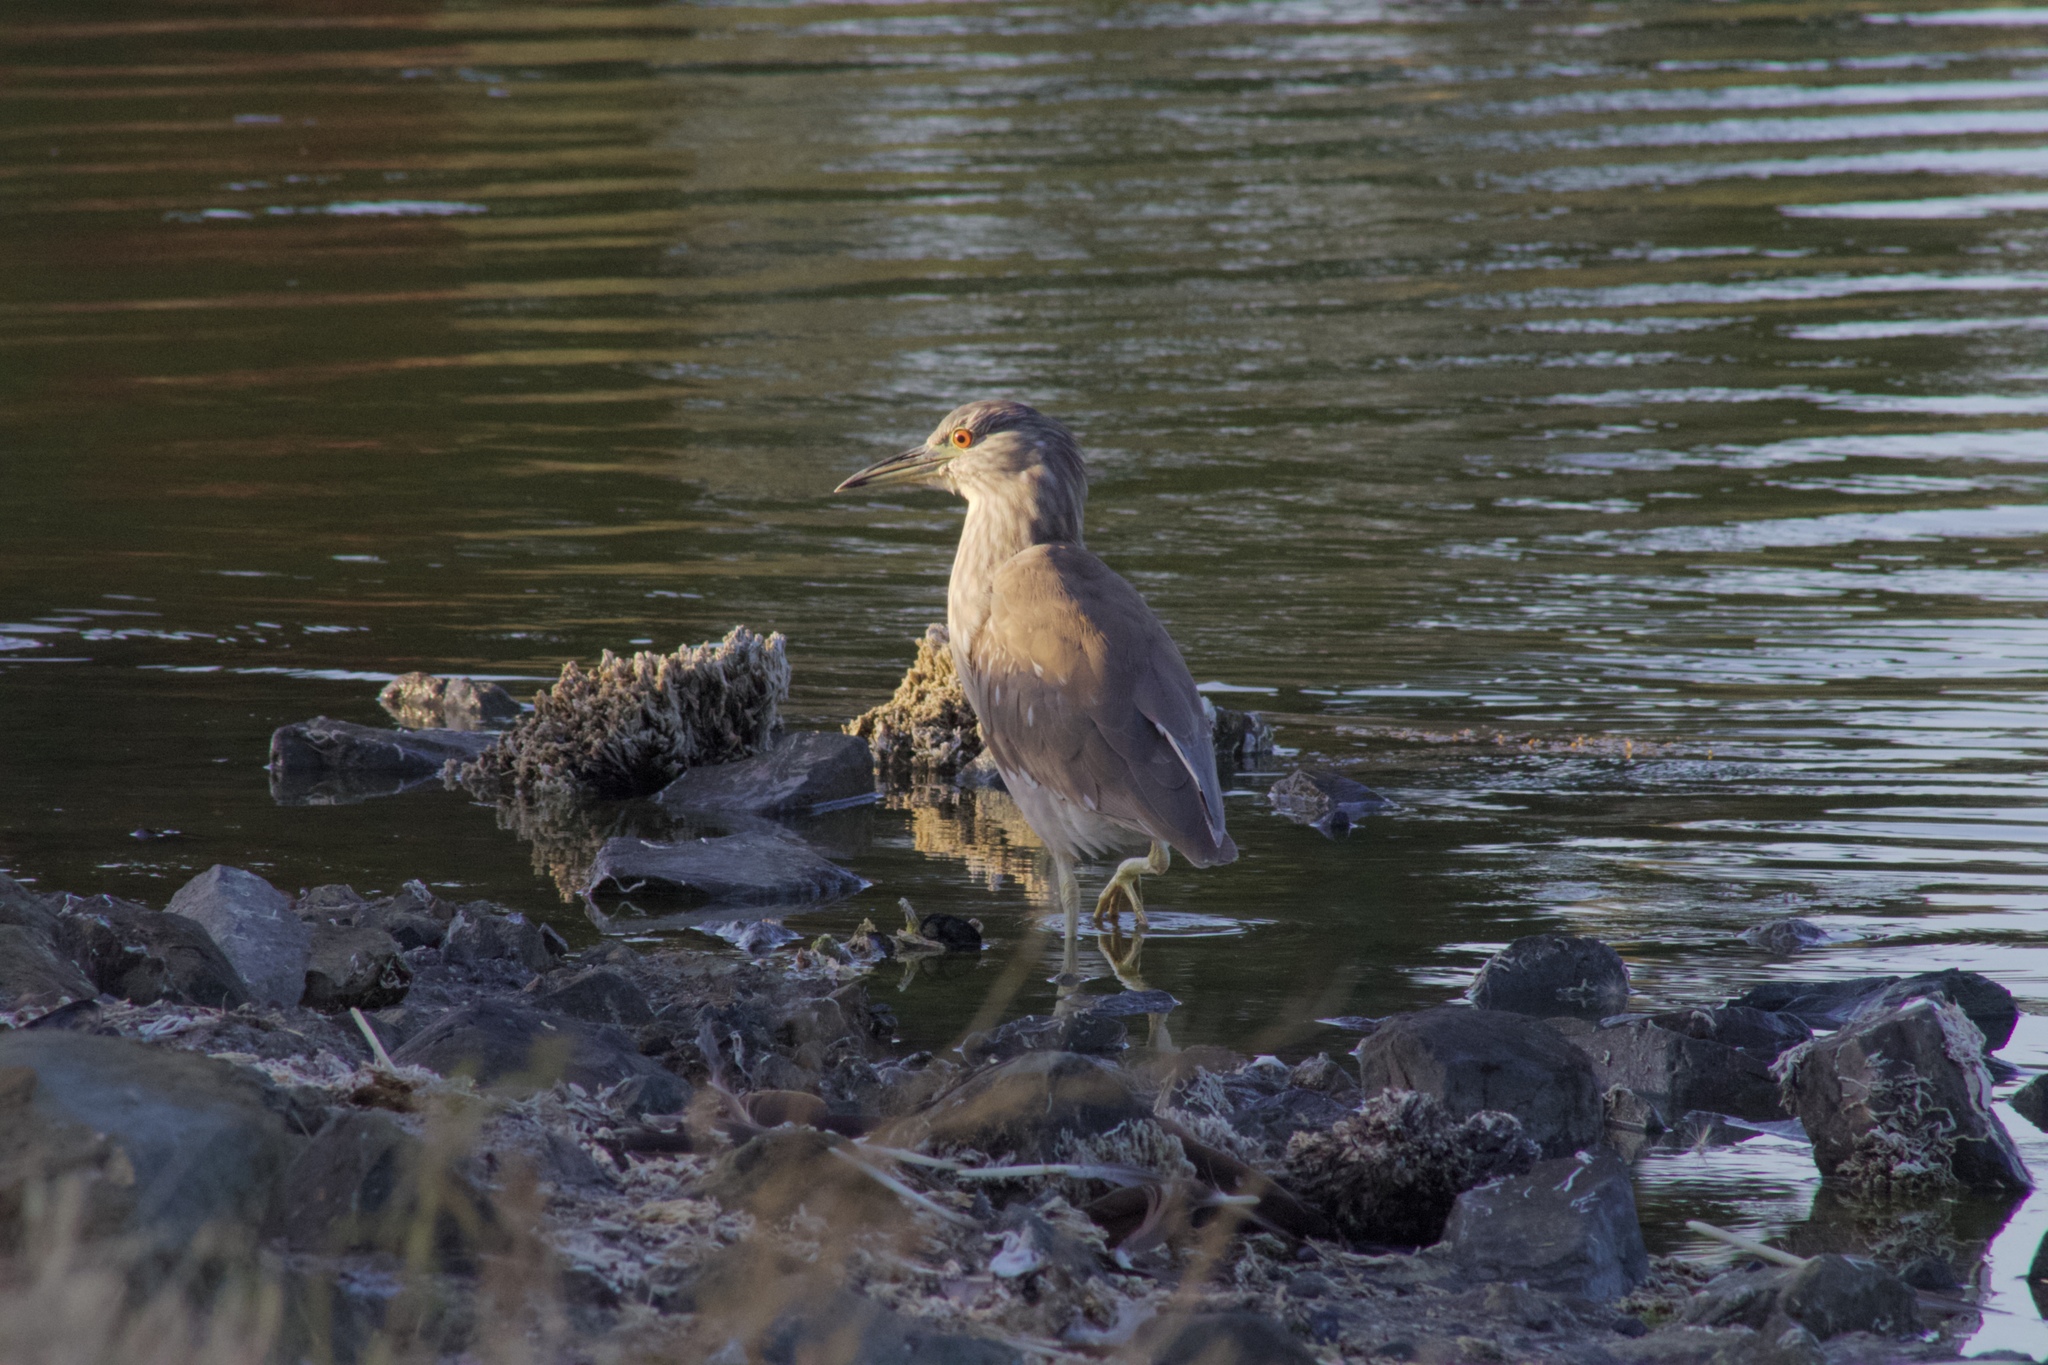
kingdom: Animalia
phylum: Chordata
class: Aves
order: Pelecaniformes
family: Ardeidae
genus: Nycticorax
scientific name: Nycticorax nycticorax
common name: Black-crowned night heron
